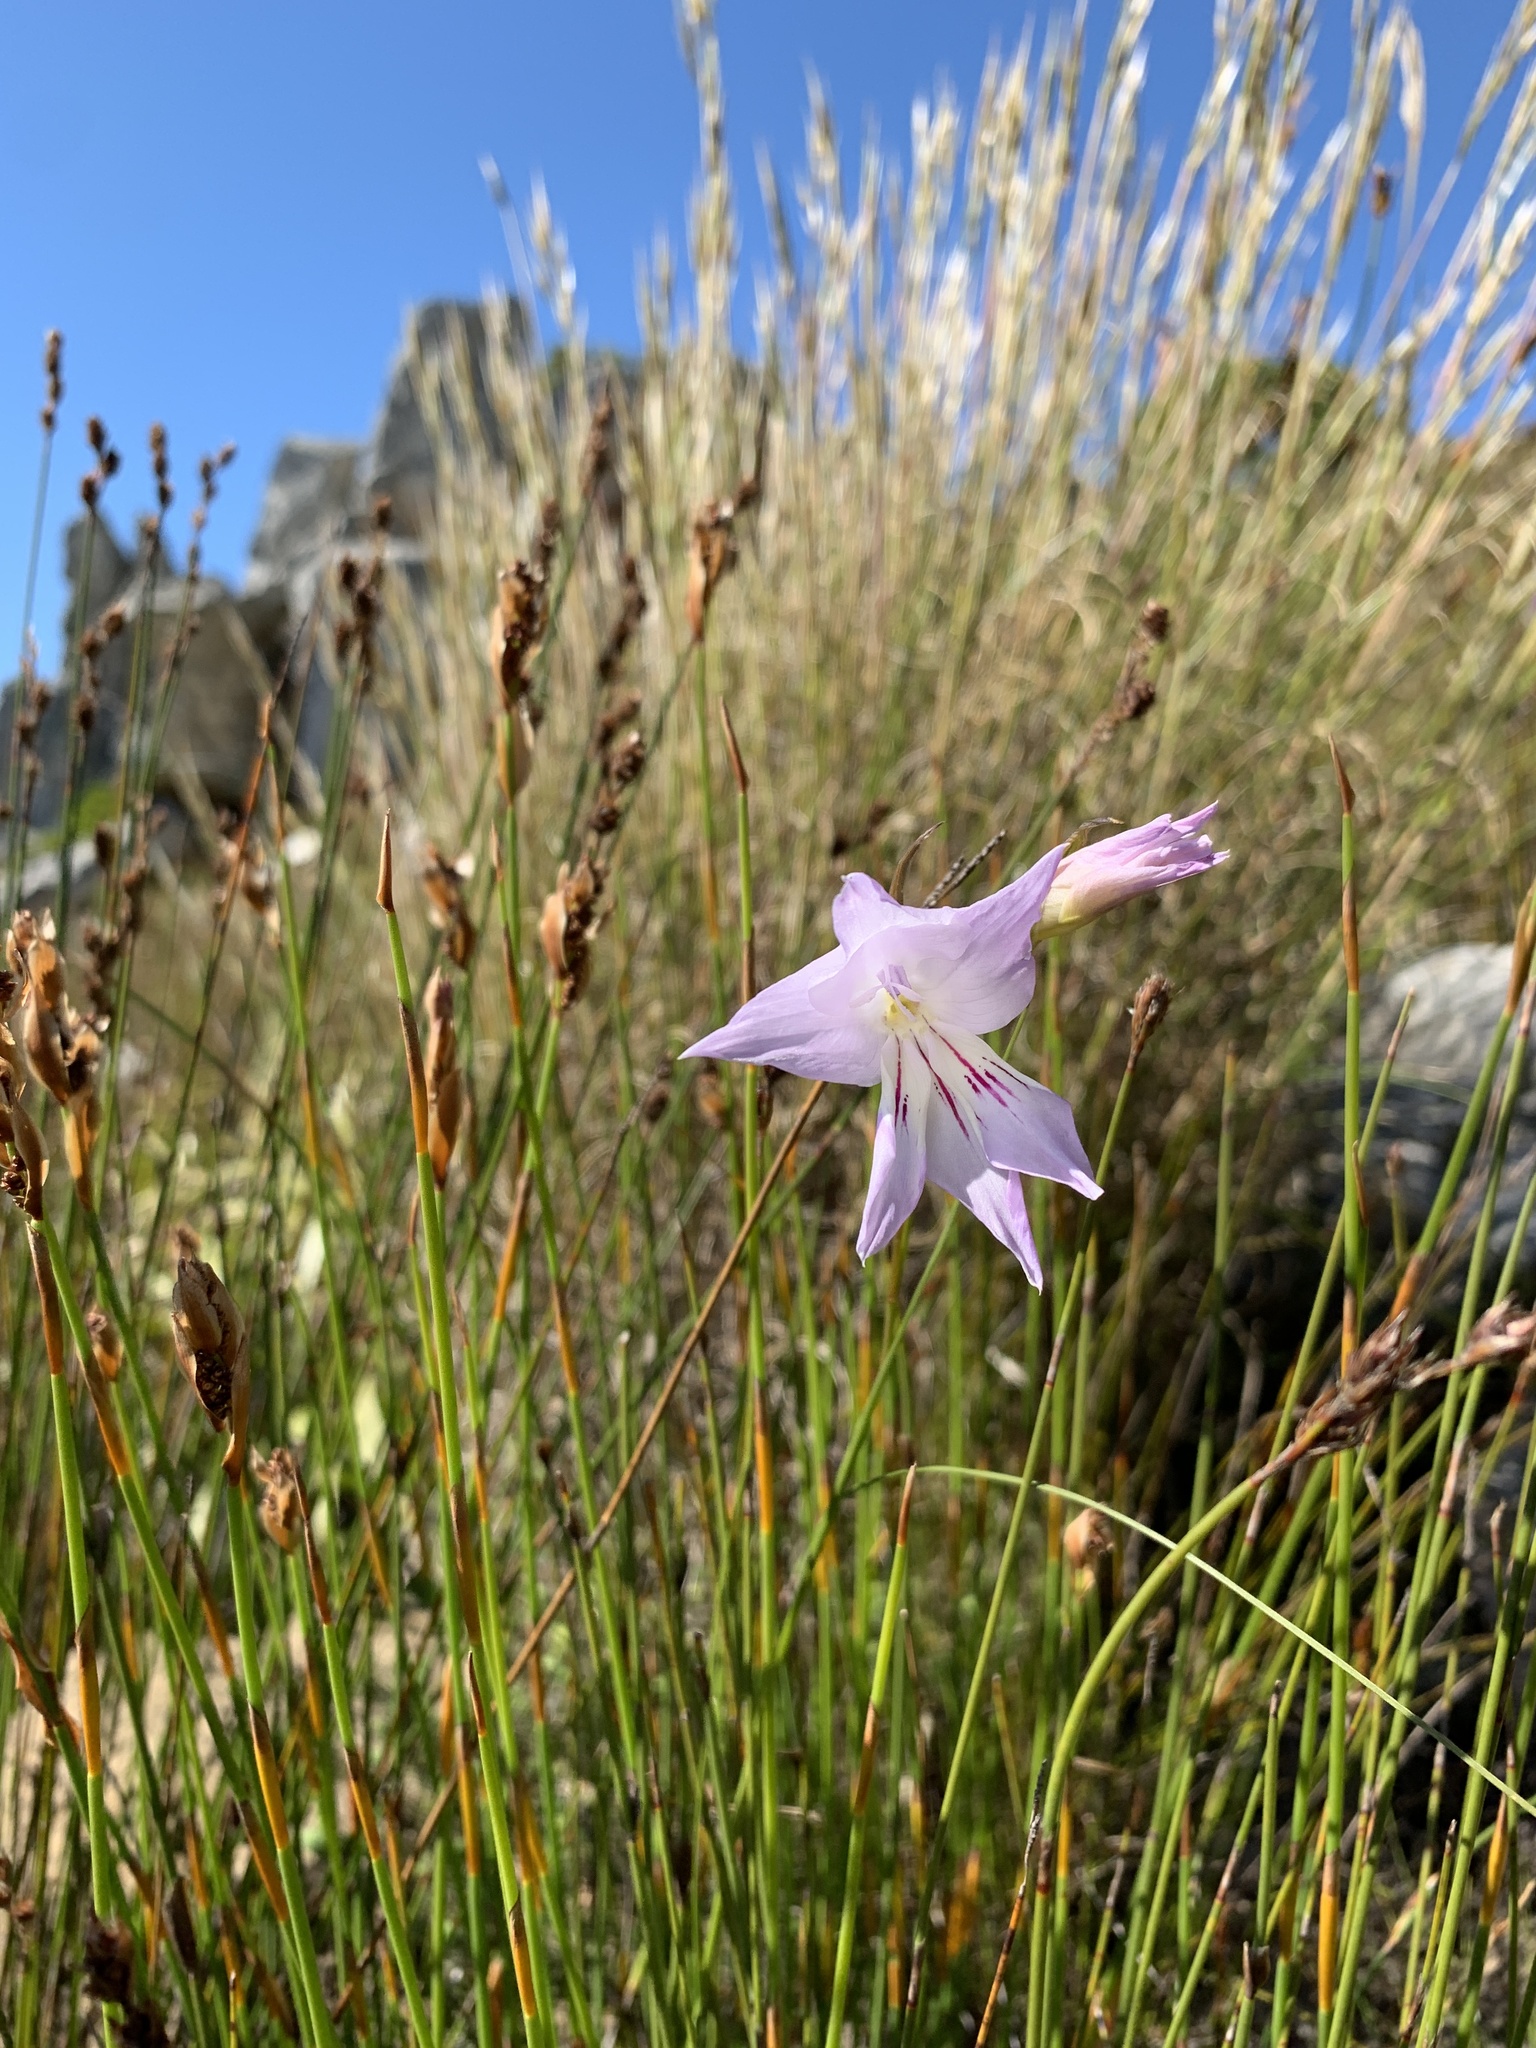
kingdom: Plantae
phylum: Tracheophyta
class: Liliopsida
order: Asparagales
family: Iridaceae
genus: Gladiolus
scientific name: Gladiolus blommesteinii
